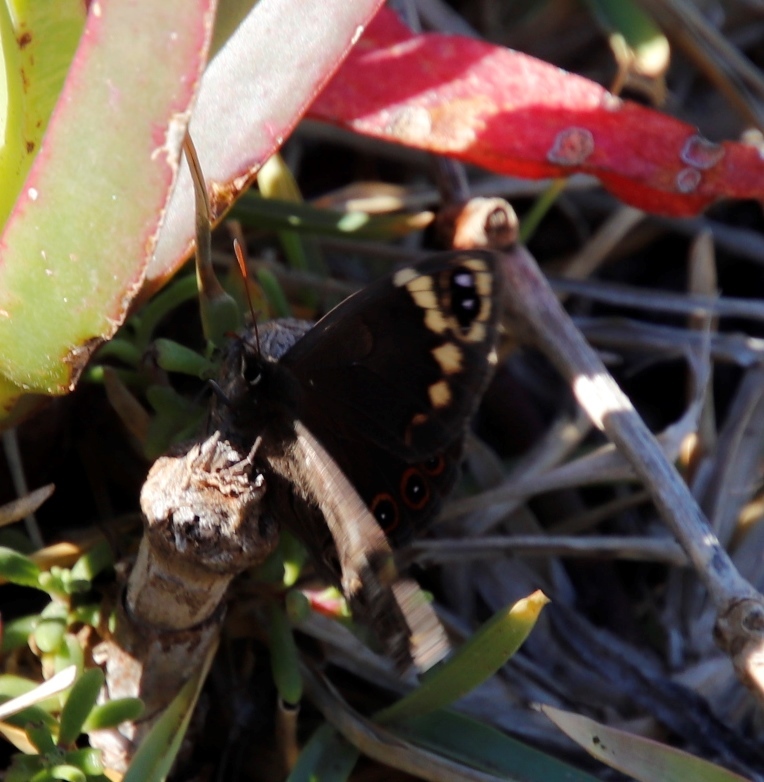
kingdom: Animalia
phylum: Arthropoda
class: Insecta
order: Lepidoptera
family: Nymphalidae
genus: Dira
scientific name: Dira clytus
